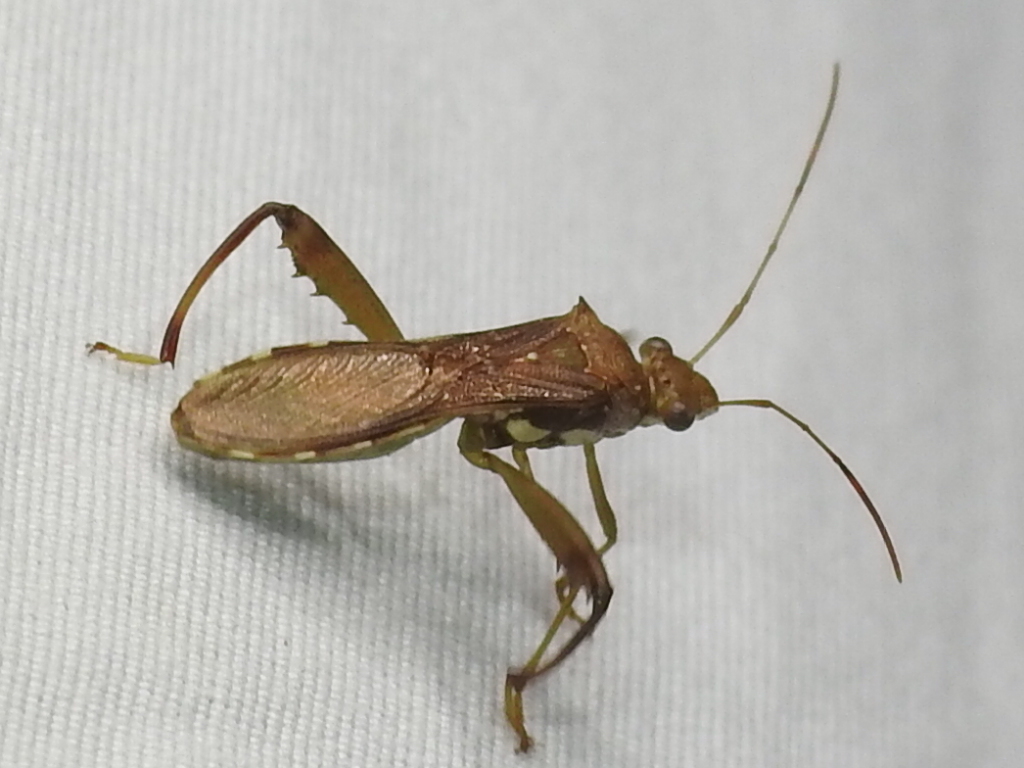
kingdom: Animalia
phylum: Arthropoda
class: Insecta
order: Hemiptera
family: Alydidae
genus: Hyalymenus
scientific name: Hyalymenus tarsatus
